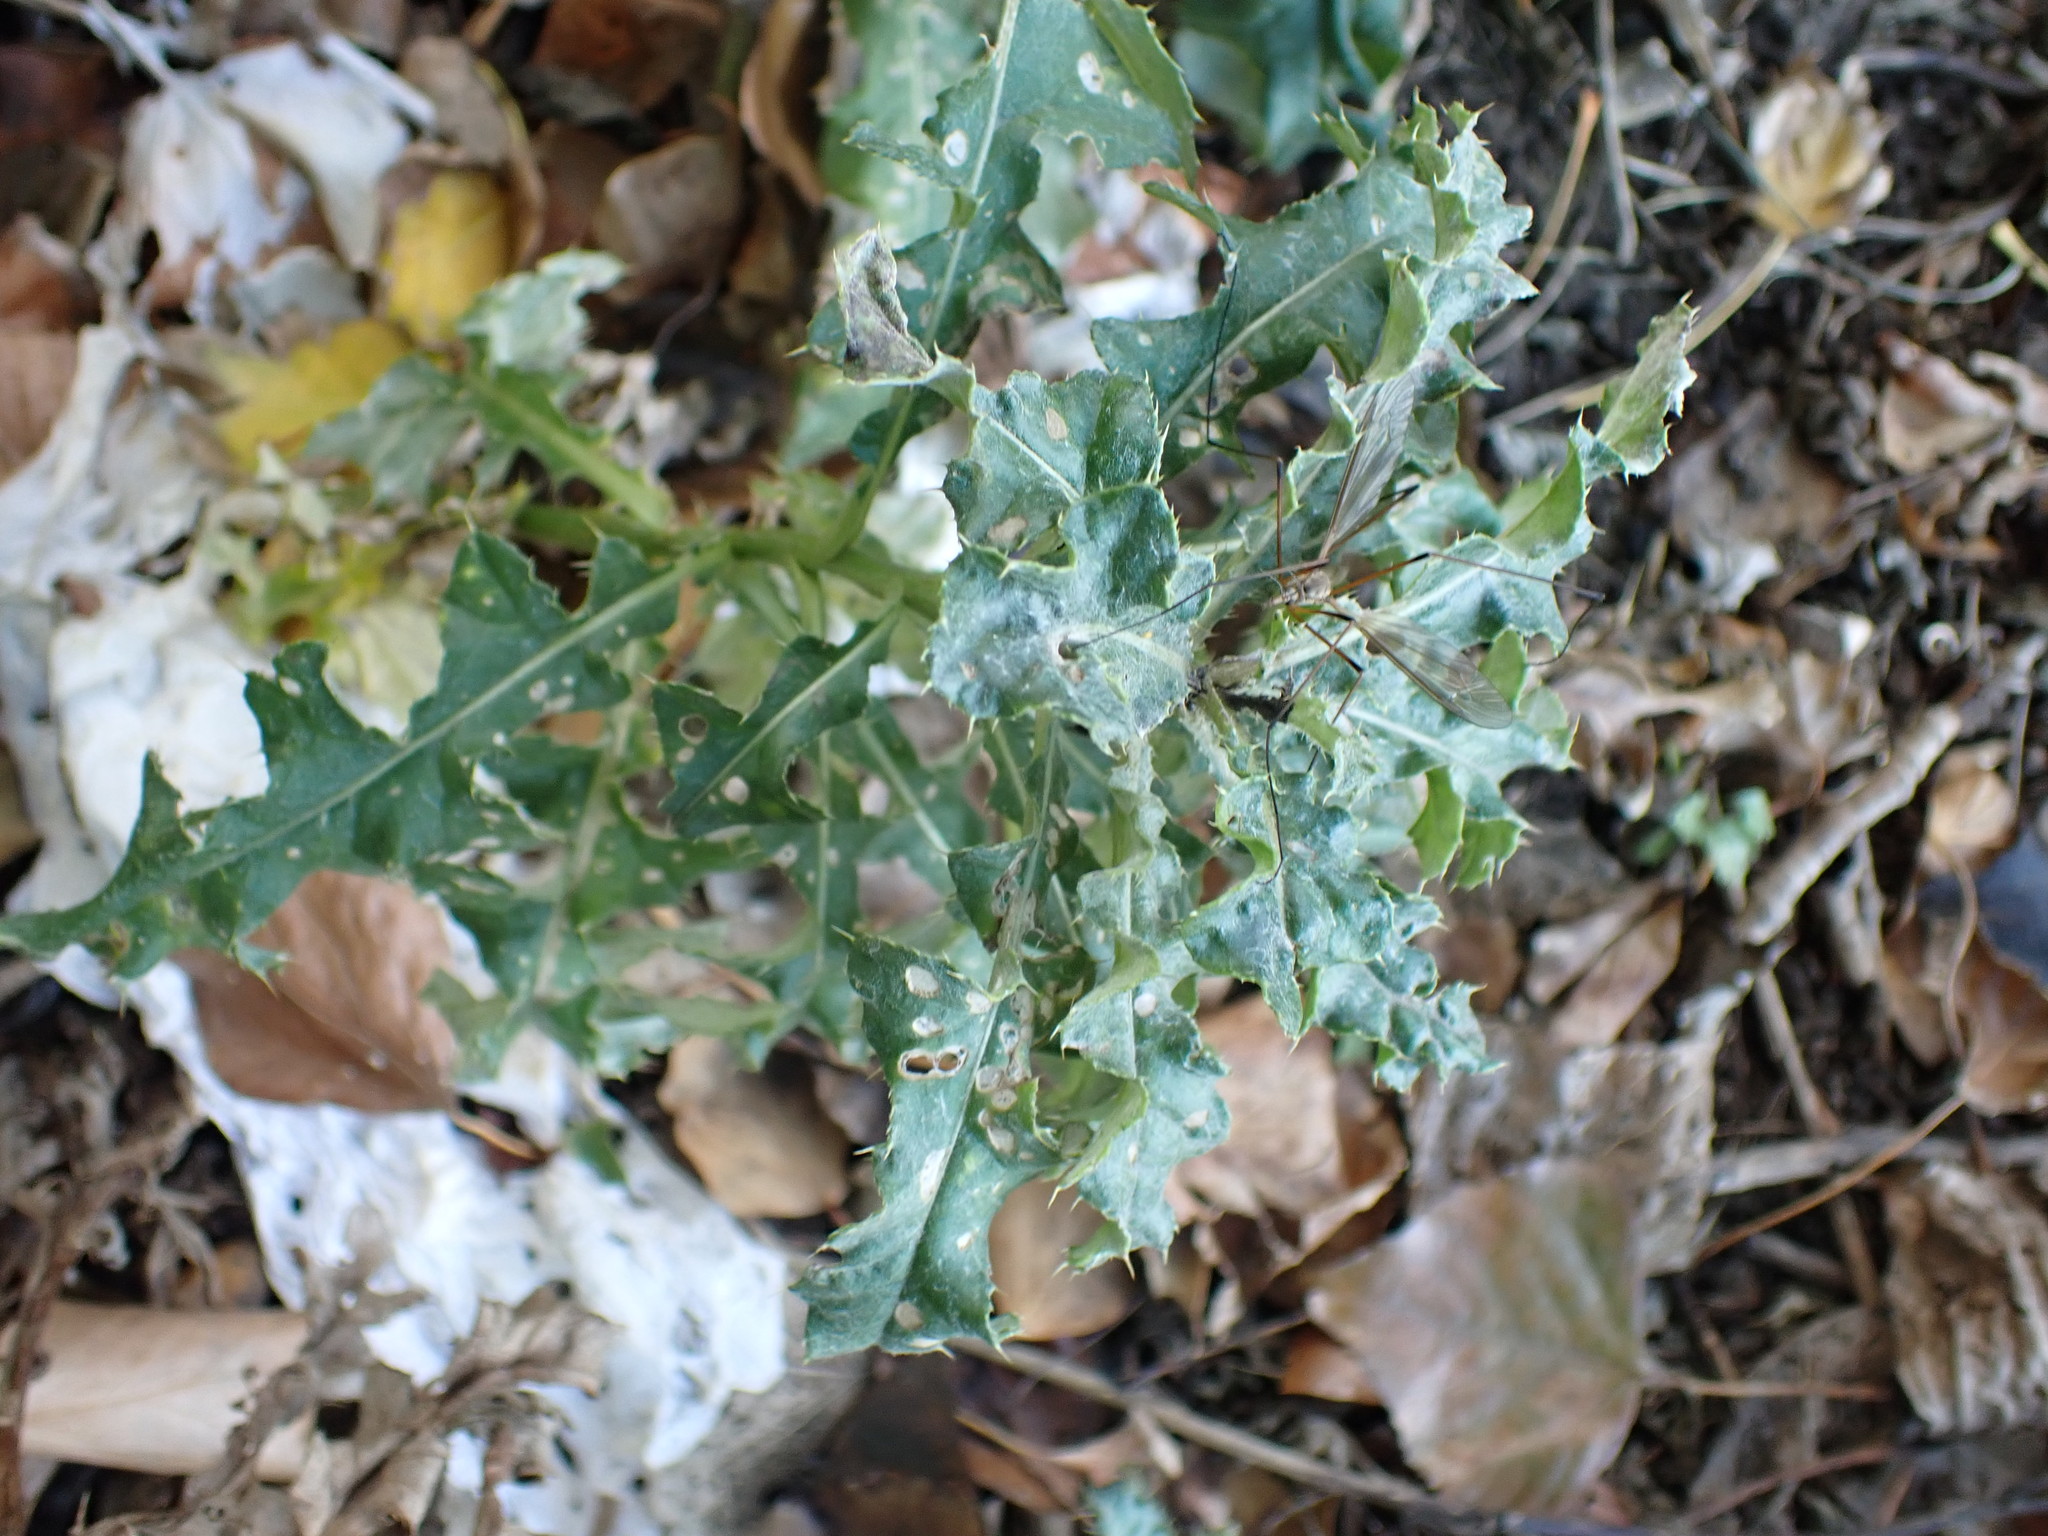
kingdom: Plantae
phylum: Tracheophyta
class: Magnoliopsida
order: Aquifoliales
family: Aquifoliaceae
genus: Ilex
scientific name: Ilex aquifolium
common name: English holly
